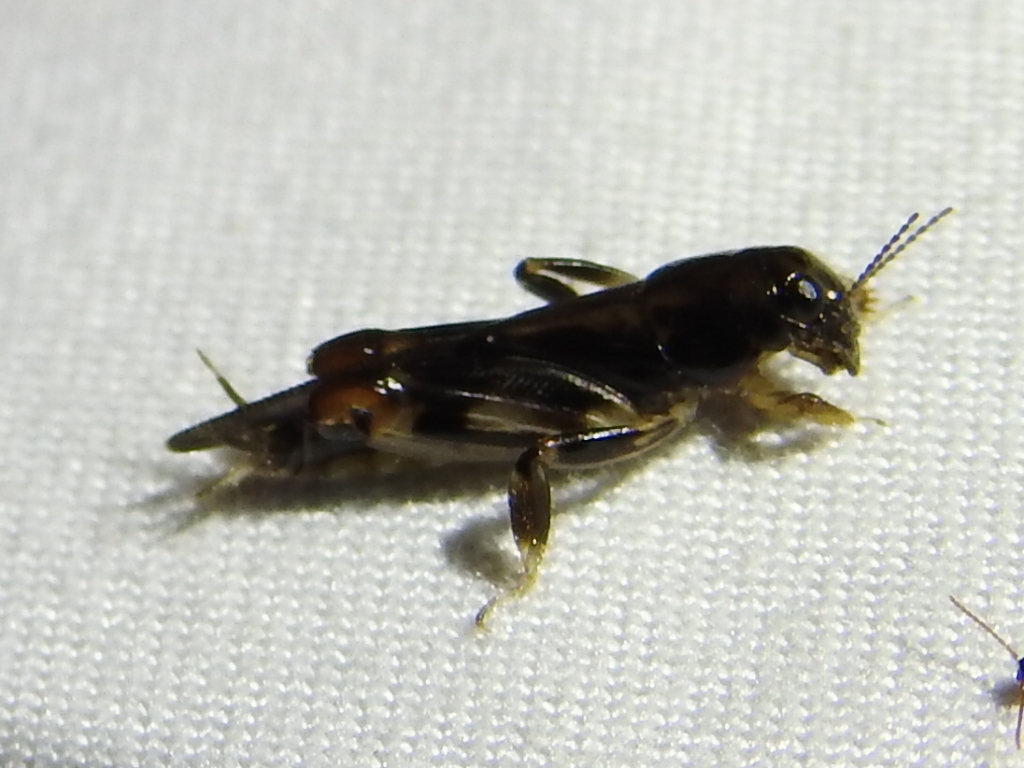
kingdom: Animalia
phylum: Arthropoda
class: Insecta
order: Orthoptera
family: Tridactylidae
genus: Neotridactylus
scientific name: Neotridactylus apicialis
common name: Larger pygmy locust
